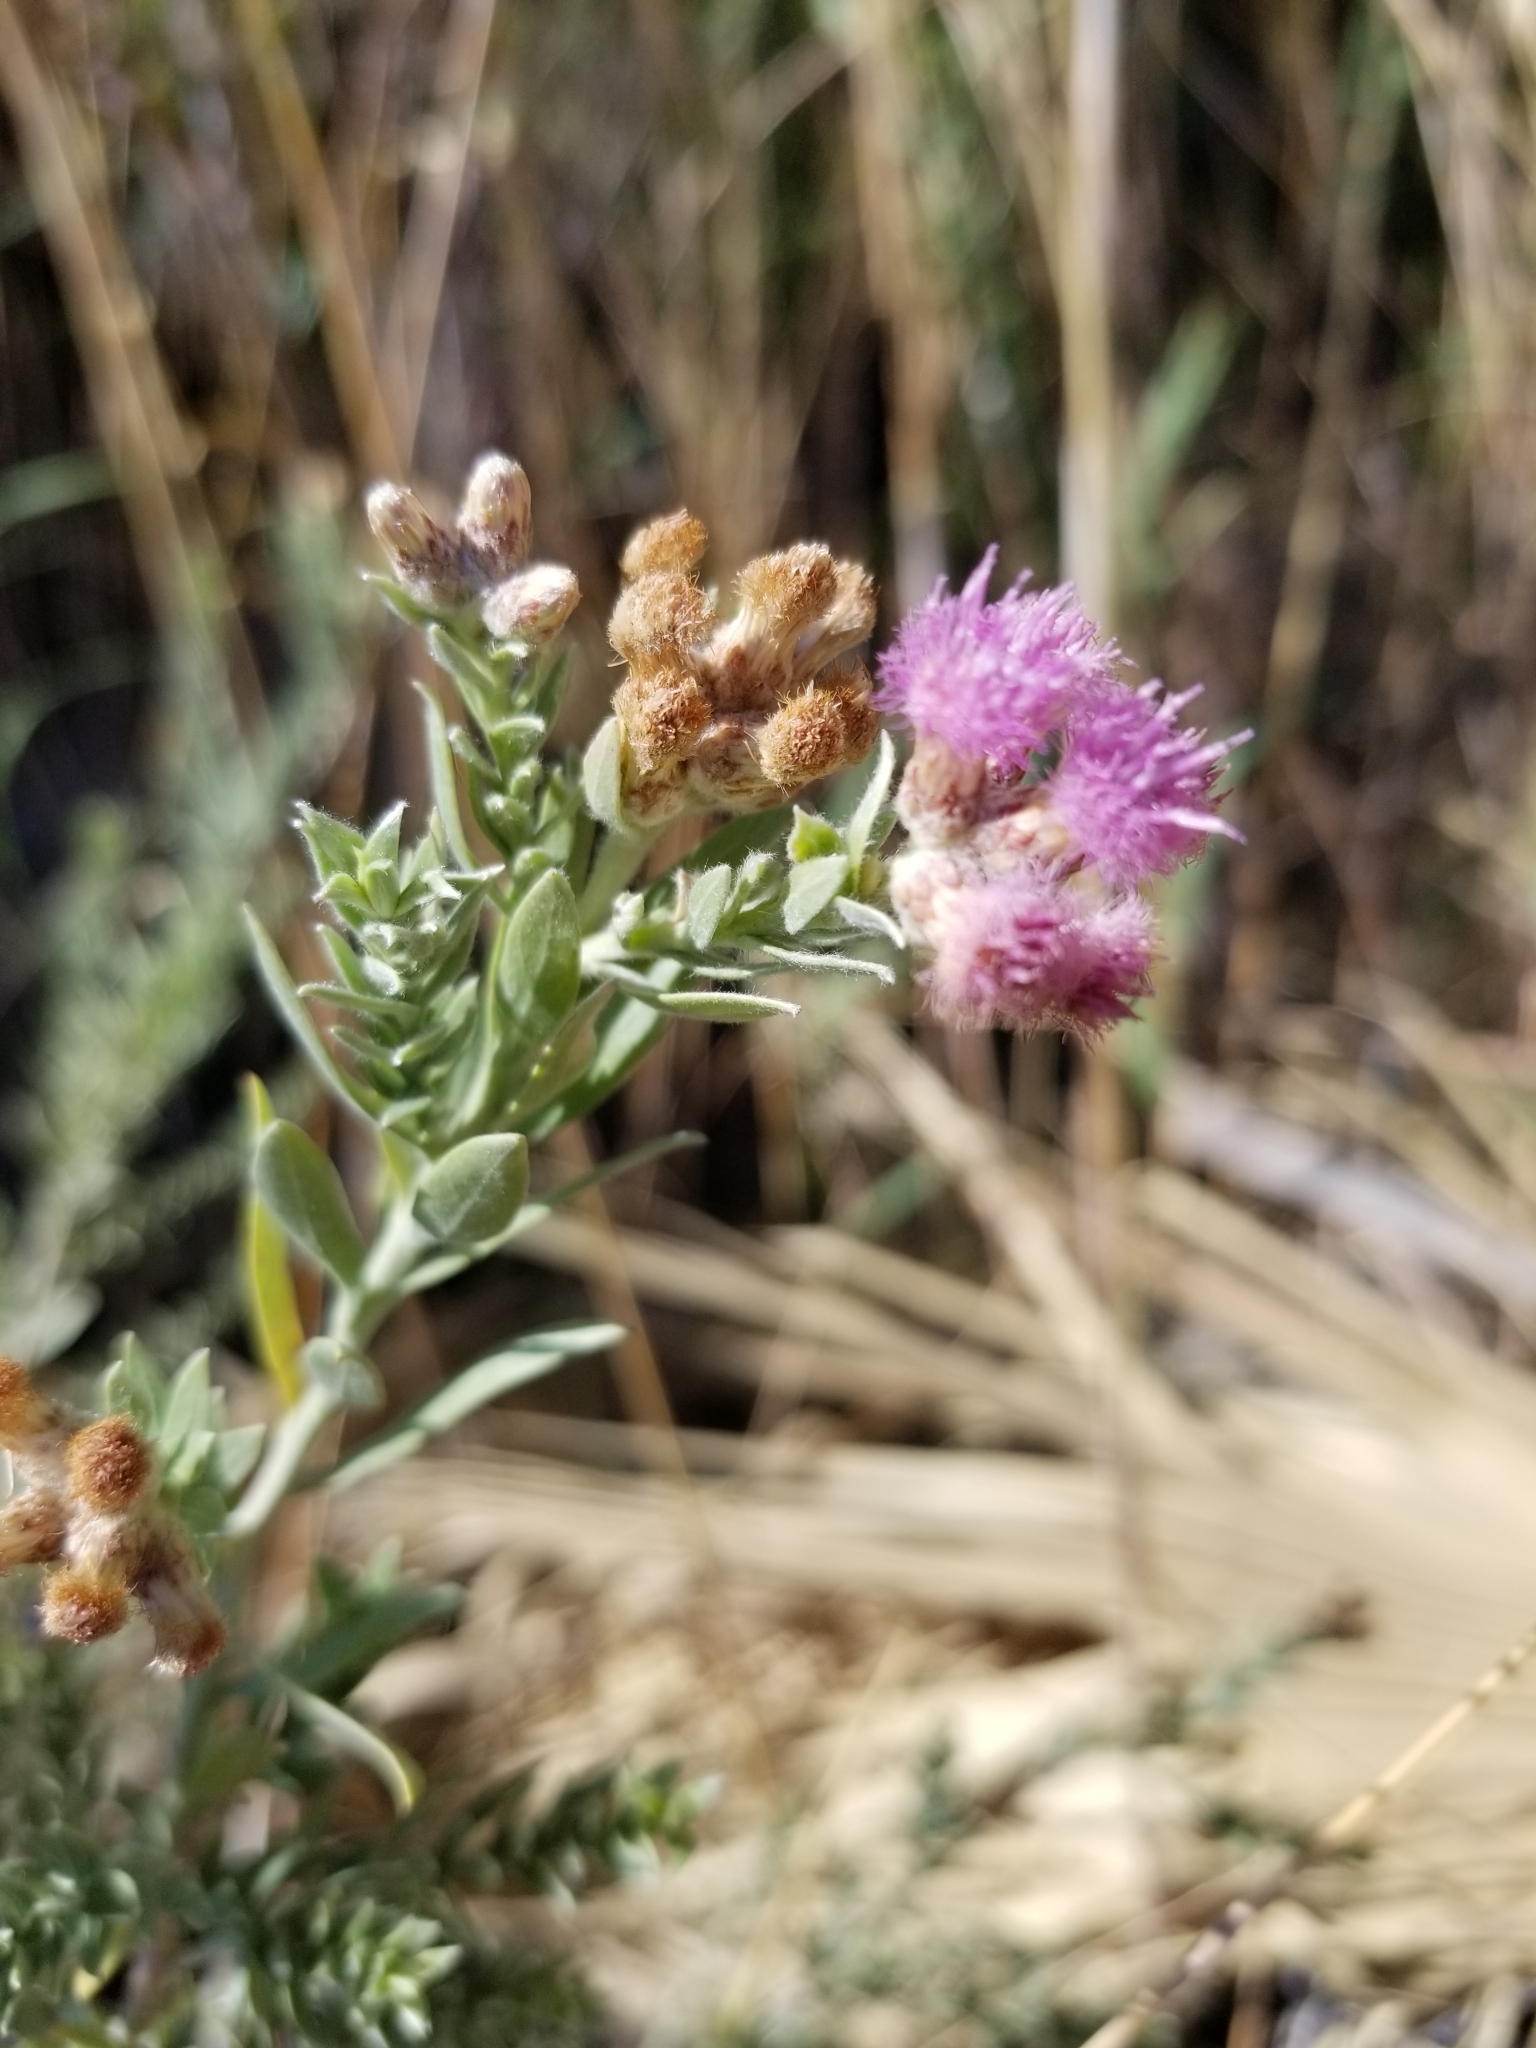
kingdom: Plantae
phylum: Tracheophyta
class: Magnoliopsida
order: Asterales
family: Asteraceae
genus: Pluchea
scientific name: Pluchea sericea
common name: Arrow-weed
